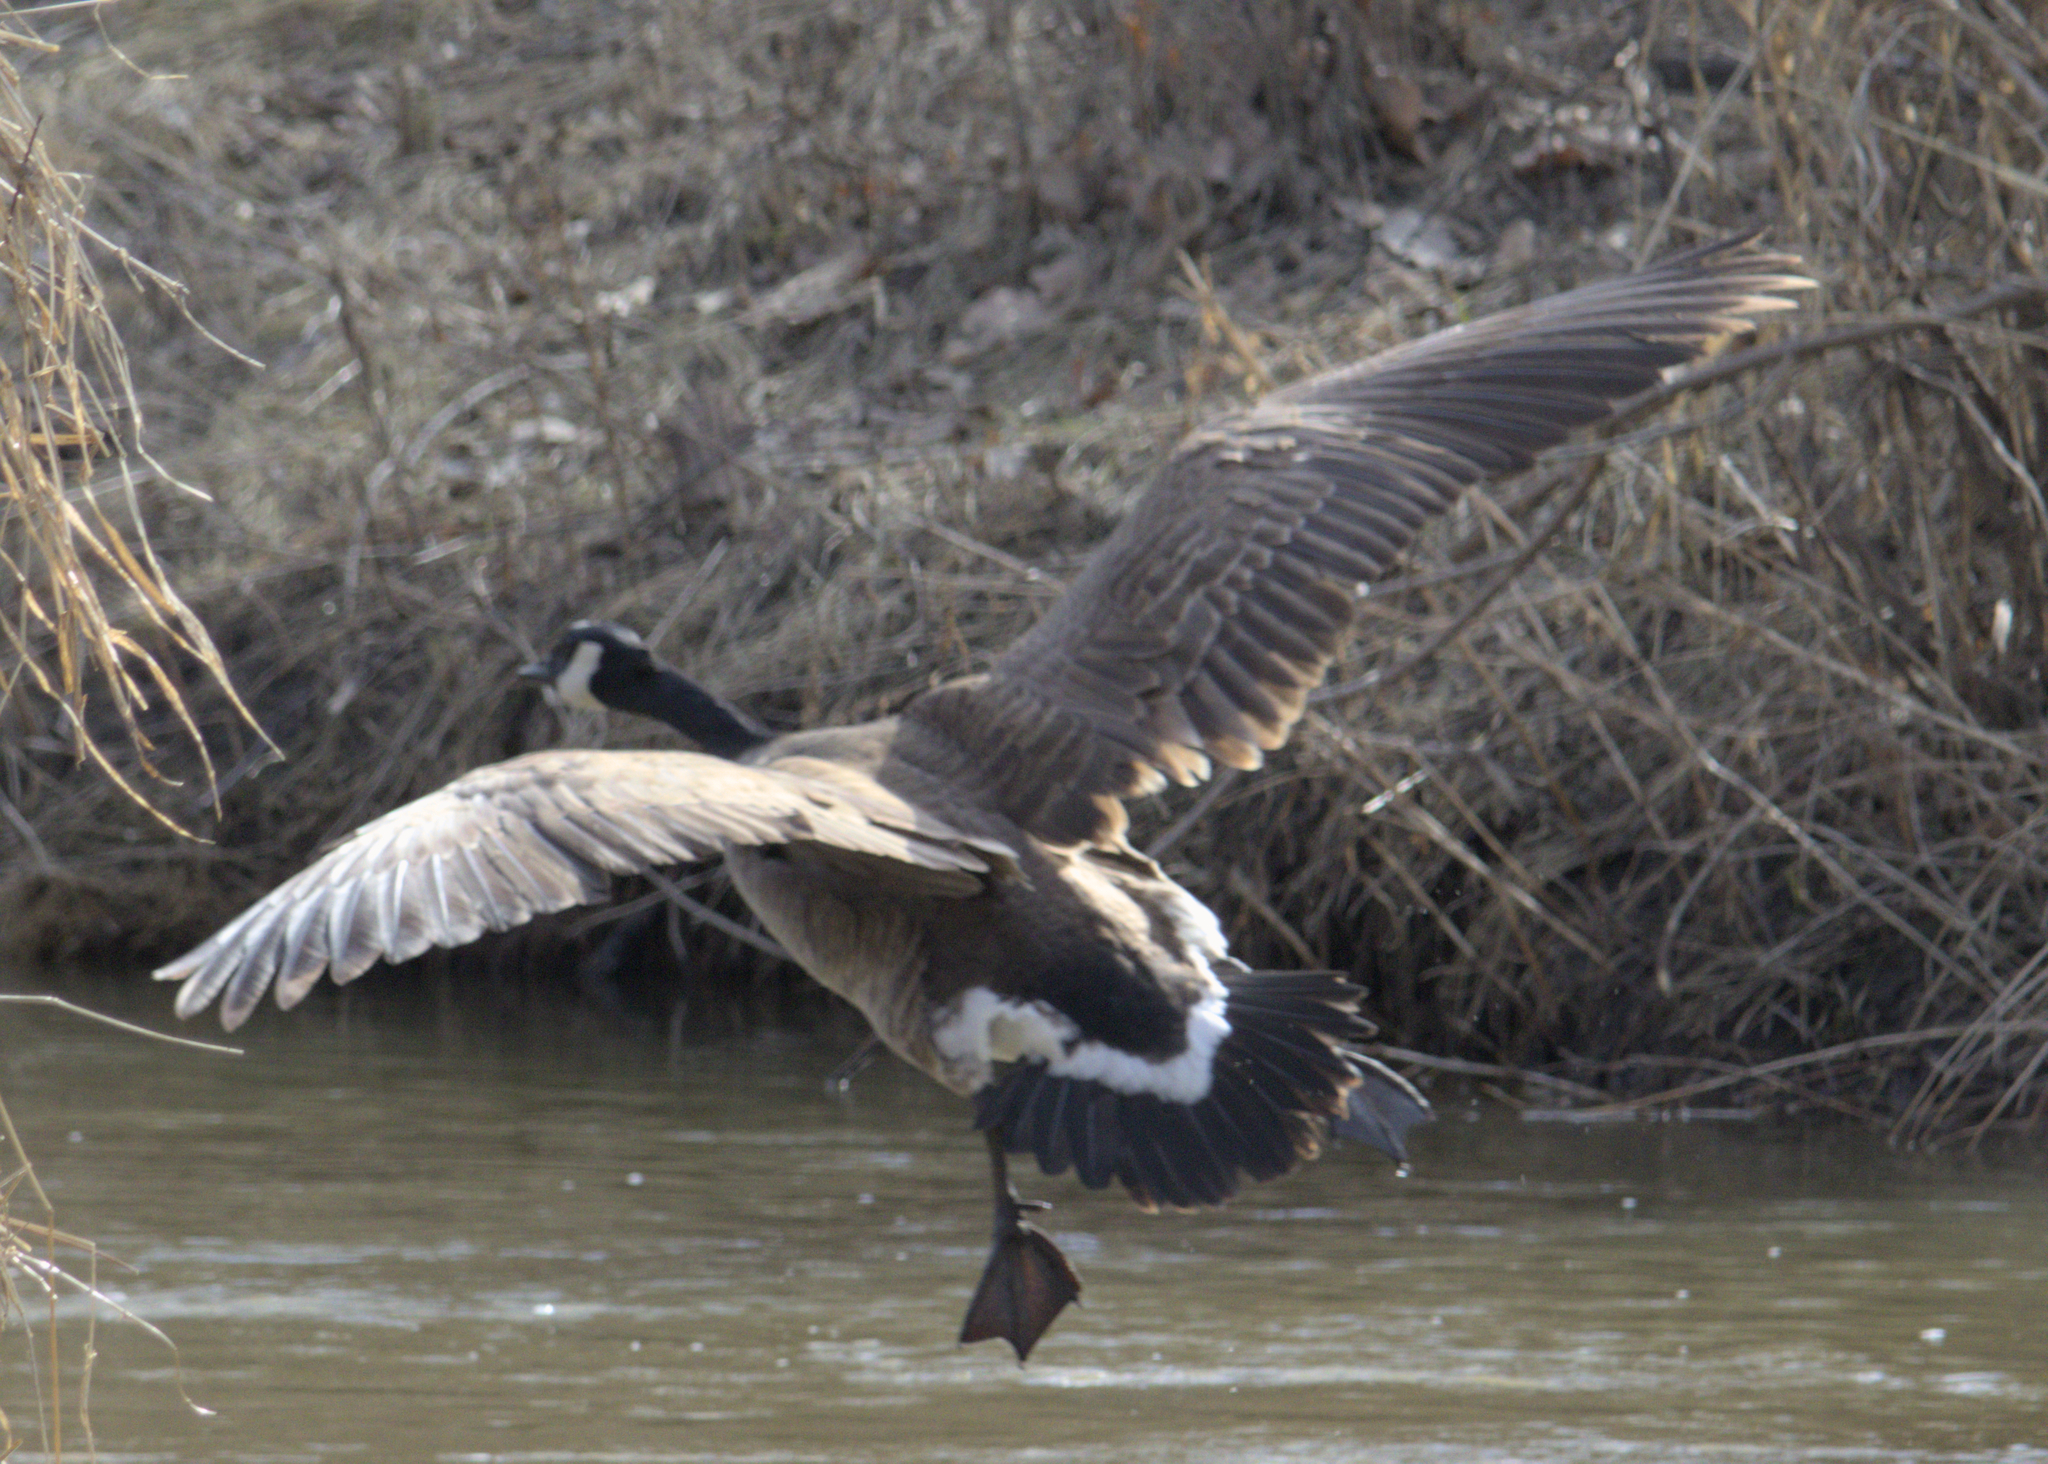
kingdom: Animalia
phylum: Chordata
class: Aves
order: Anseriformes
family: Anatidae
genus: Branta
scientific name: Branta canadensis
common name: Canada goose
